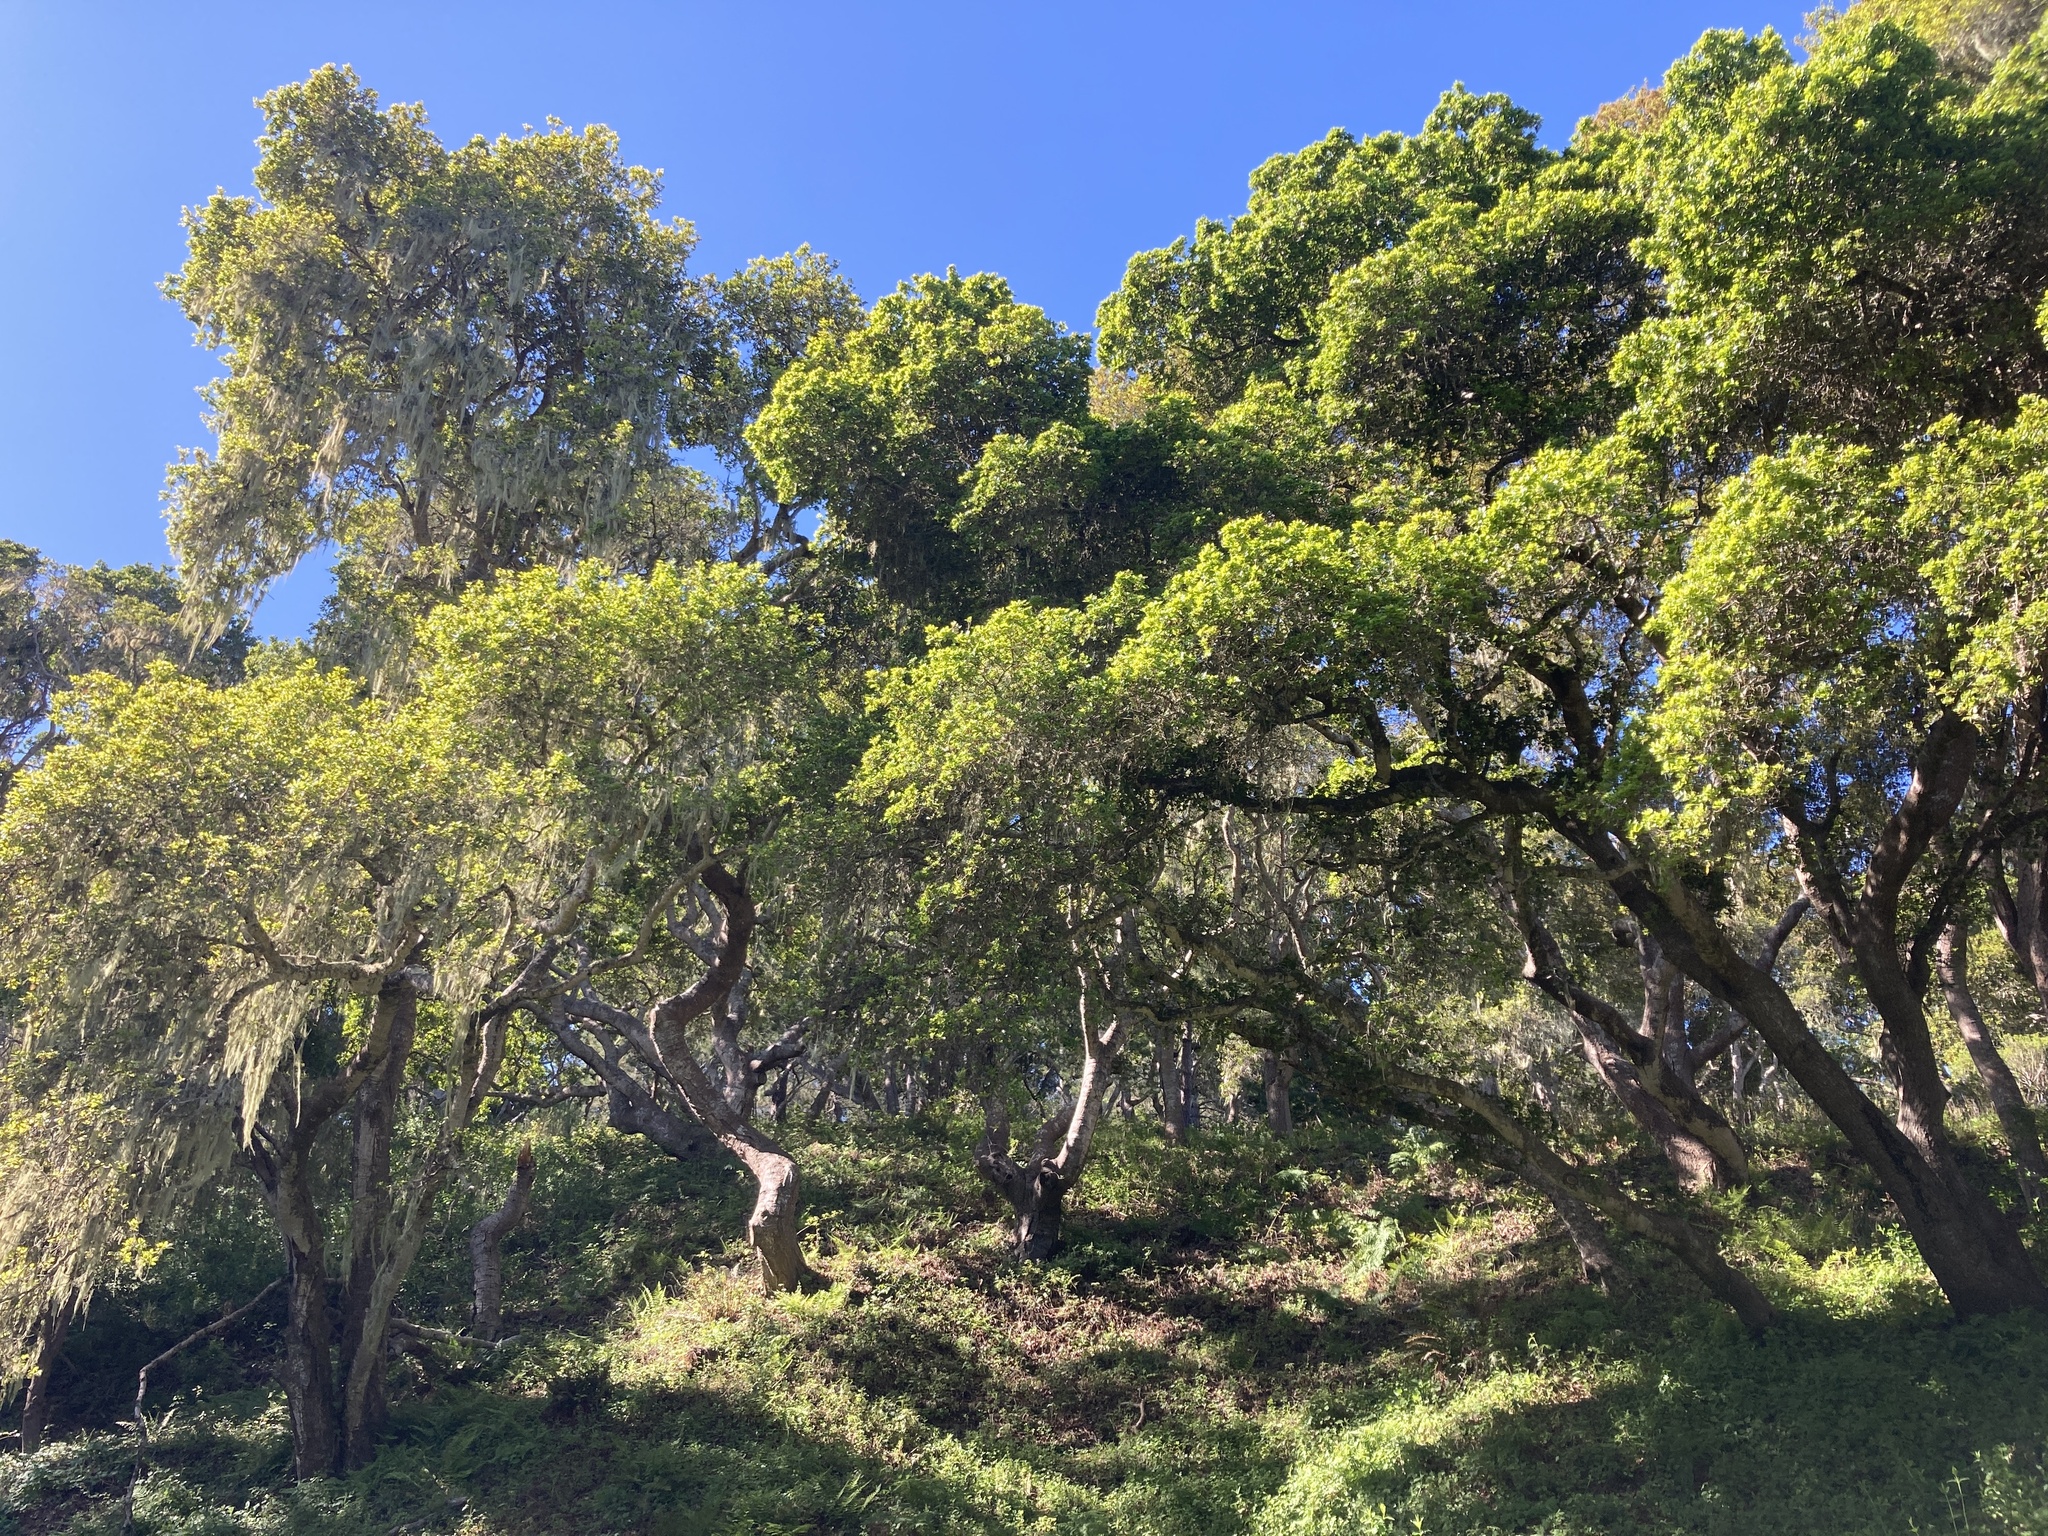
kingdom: Plantae
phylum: Tracheophyta
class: Magnoliopsida
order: Fagales
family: Fagaceae
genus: Quercus
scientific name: Quercus agrifolia
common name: California live oak
